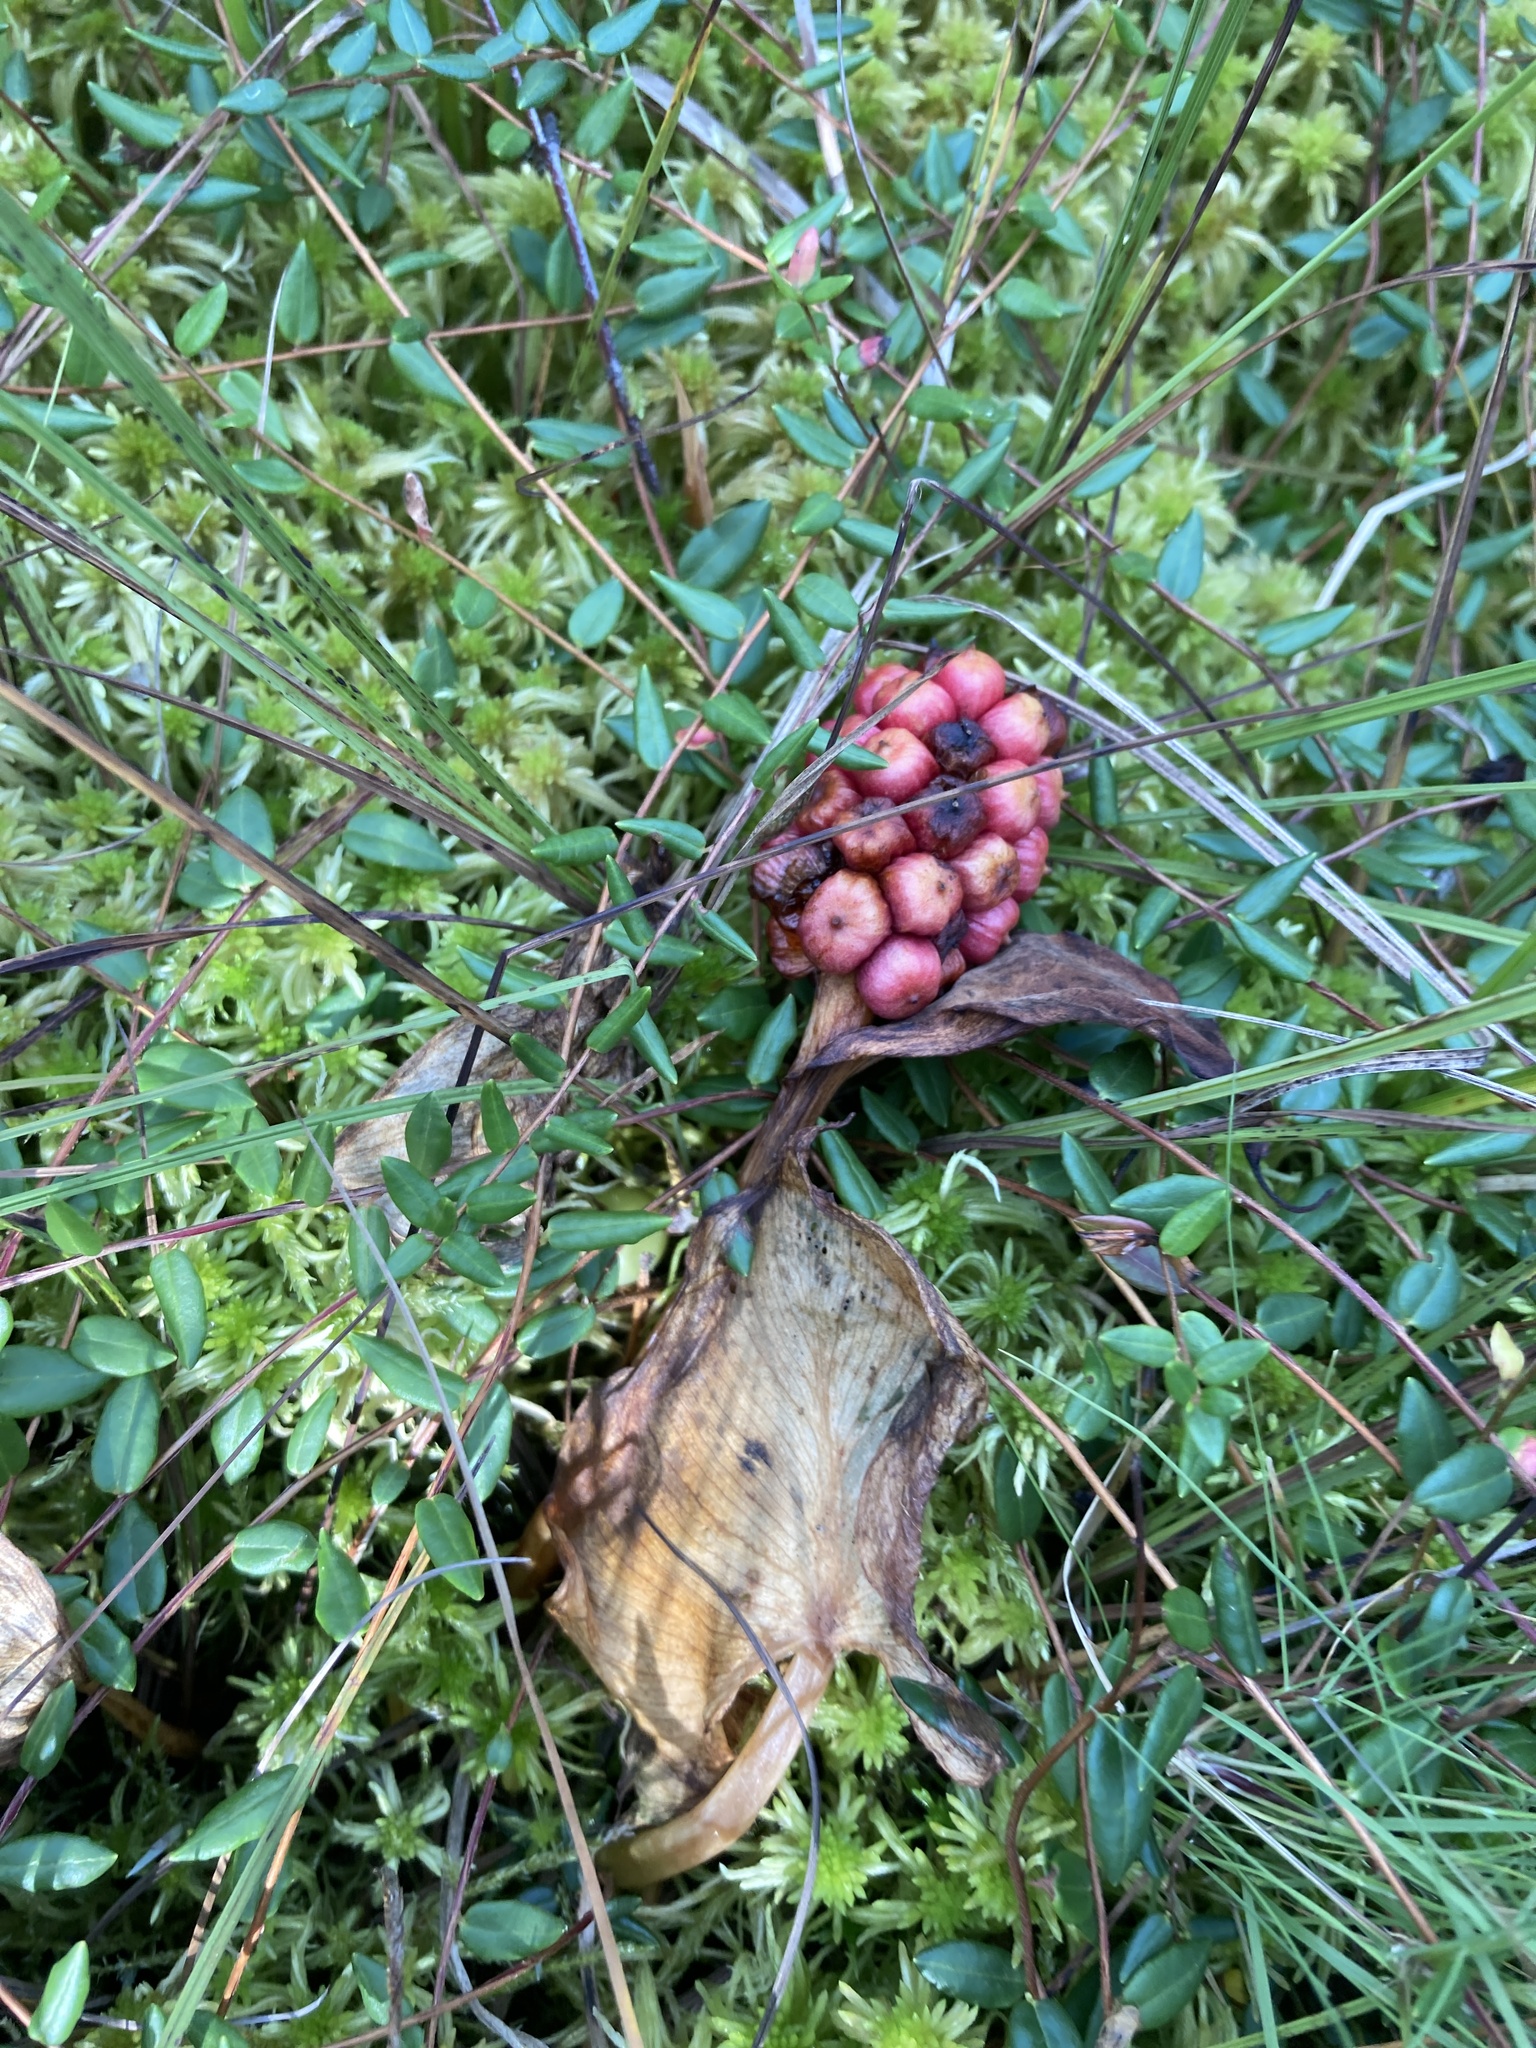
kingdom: Plantae
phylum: Tracheophyta
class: Liliopsida
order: Alismatales
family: Araceae
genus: Calla
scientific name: Calla palustris
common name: Bog arum
